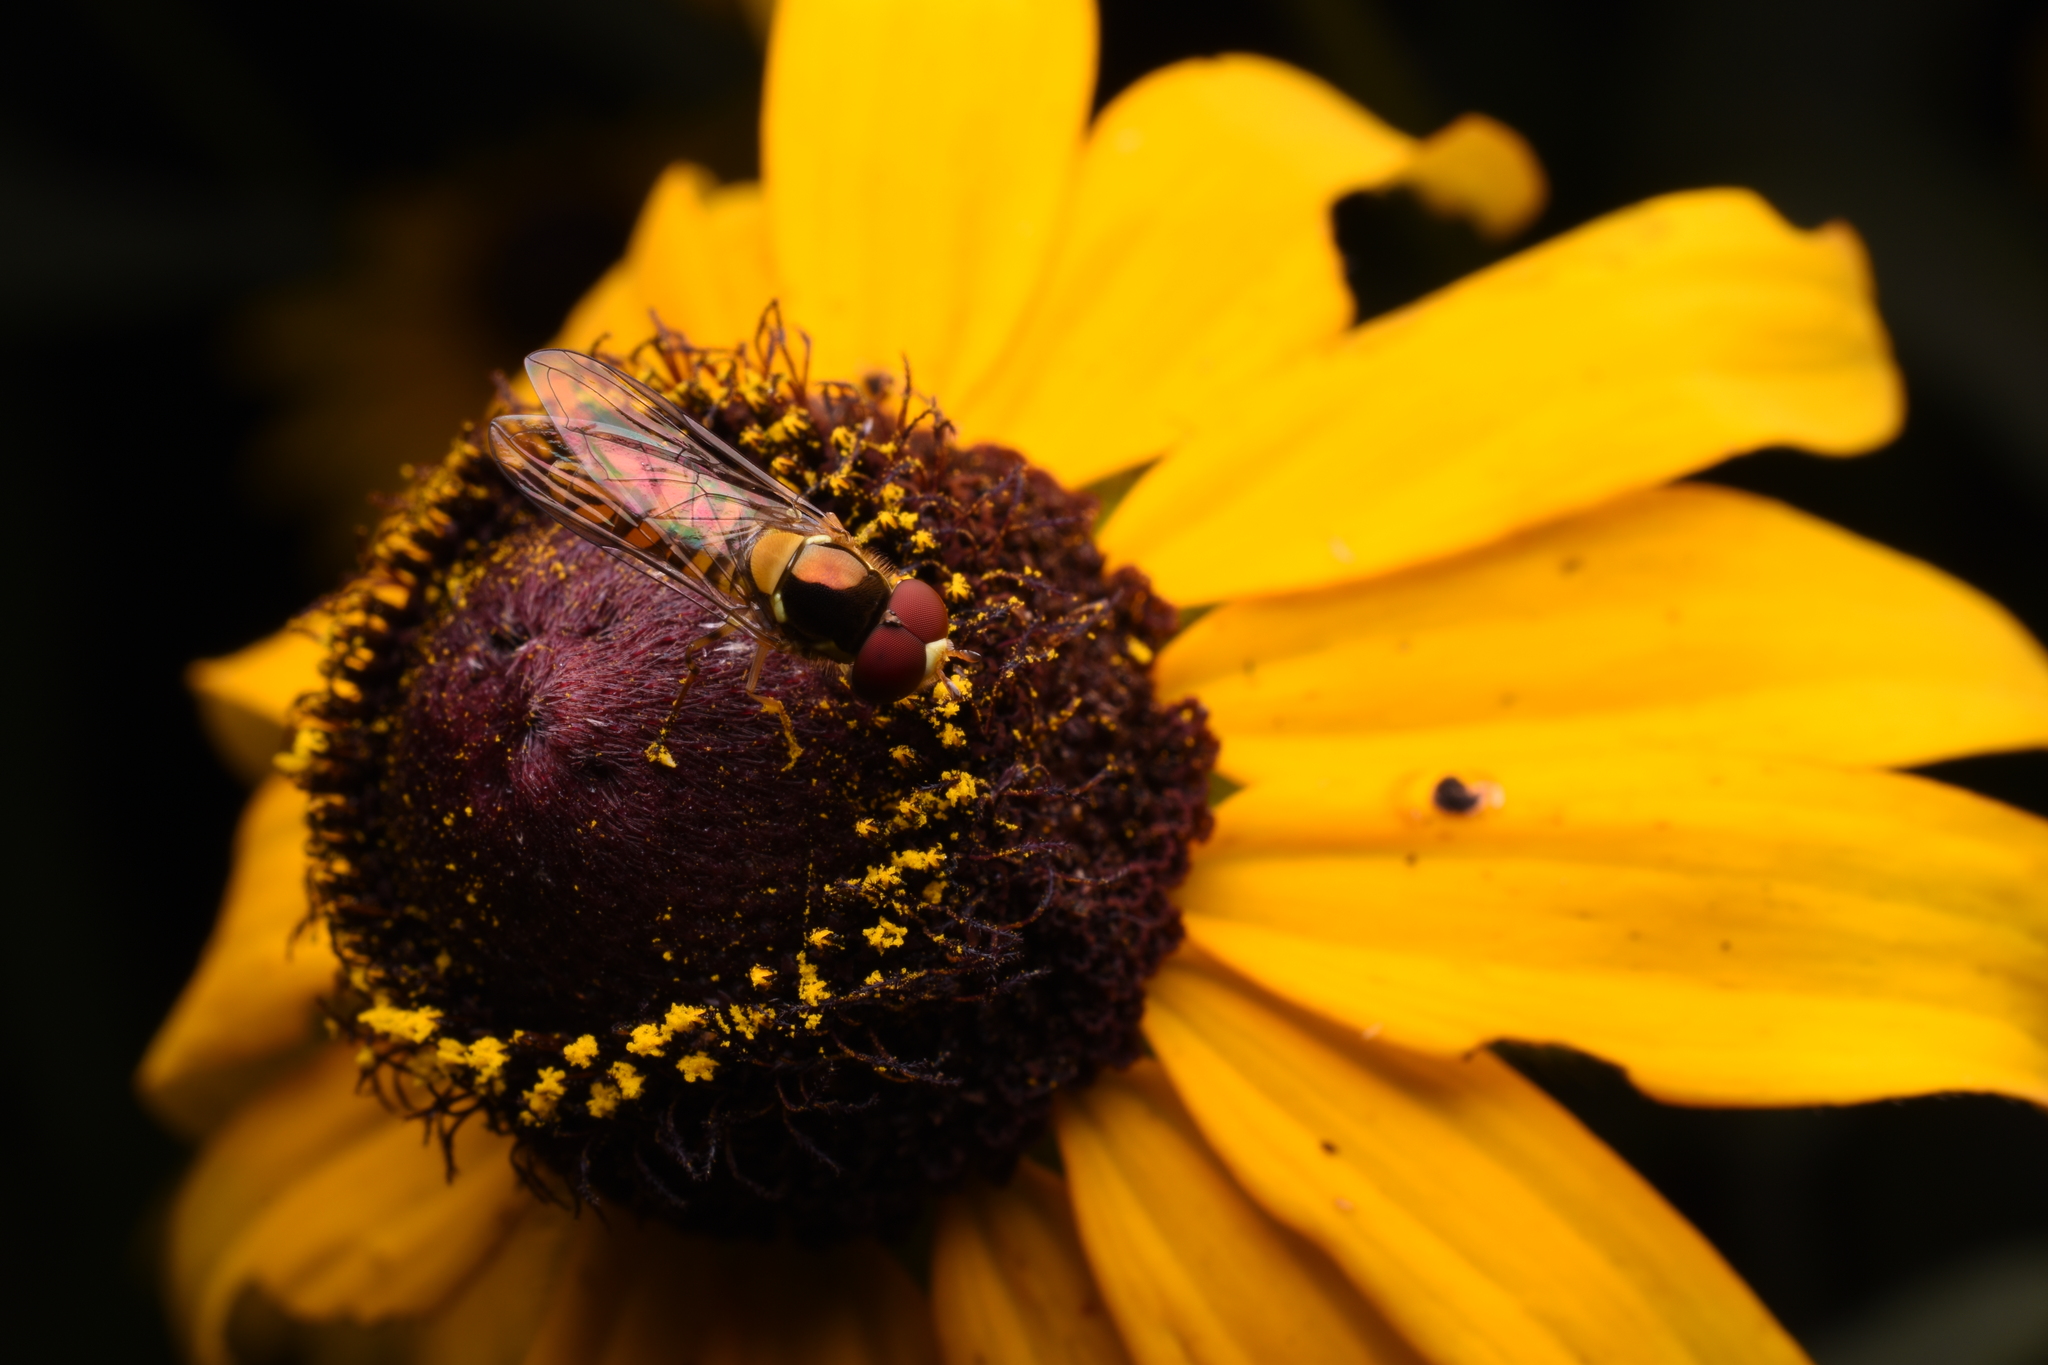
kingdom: Animalia
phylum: Arthropoda
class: Insecta
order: Diptera
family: Syrphidae
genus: Allograpta
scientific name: Allograpta obliqua
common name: Common oblique syrphid
